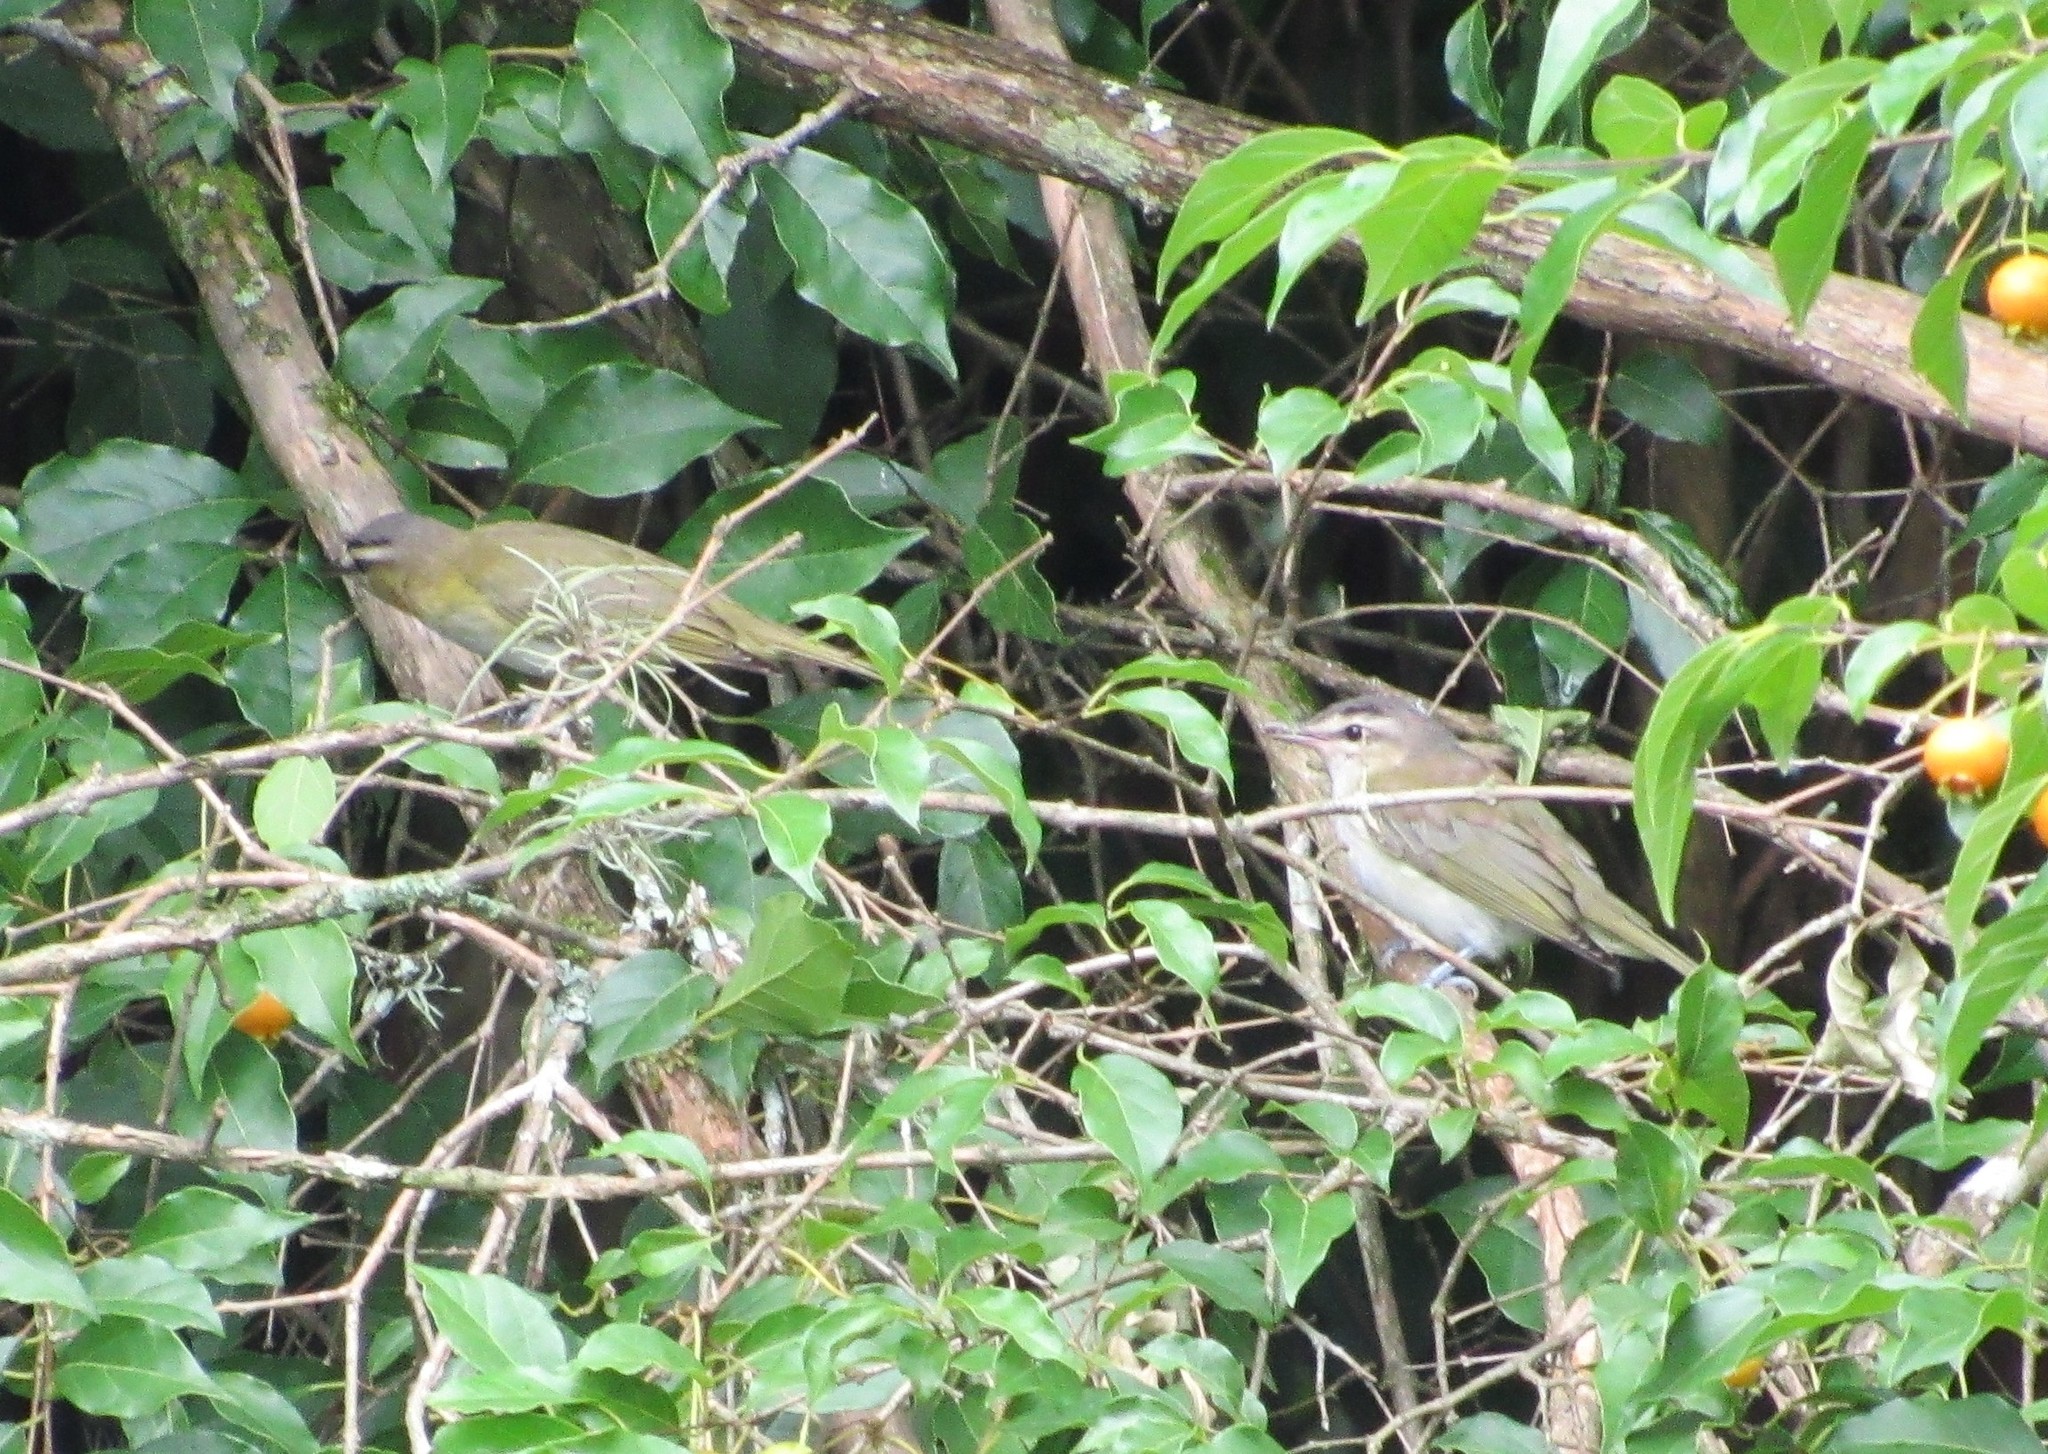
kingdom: Animalia
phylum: Chordata
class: Aves
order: Passeriformes
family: Vireonidae
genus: Vireo
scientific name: Vireo olivaceus
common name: Red-eyed vireo
